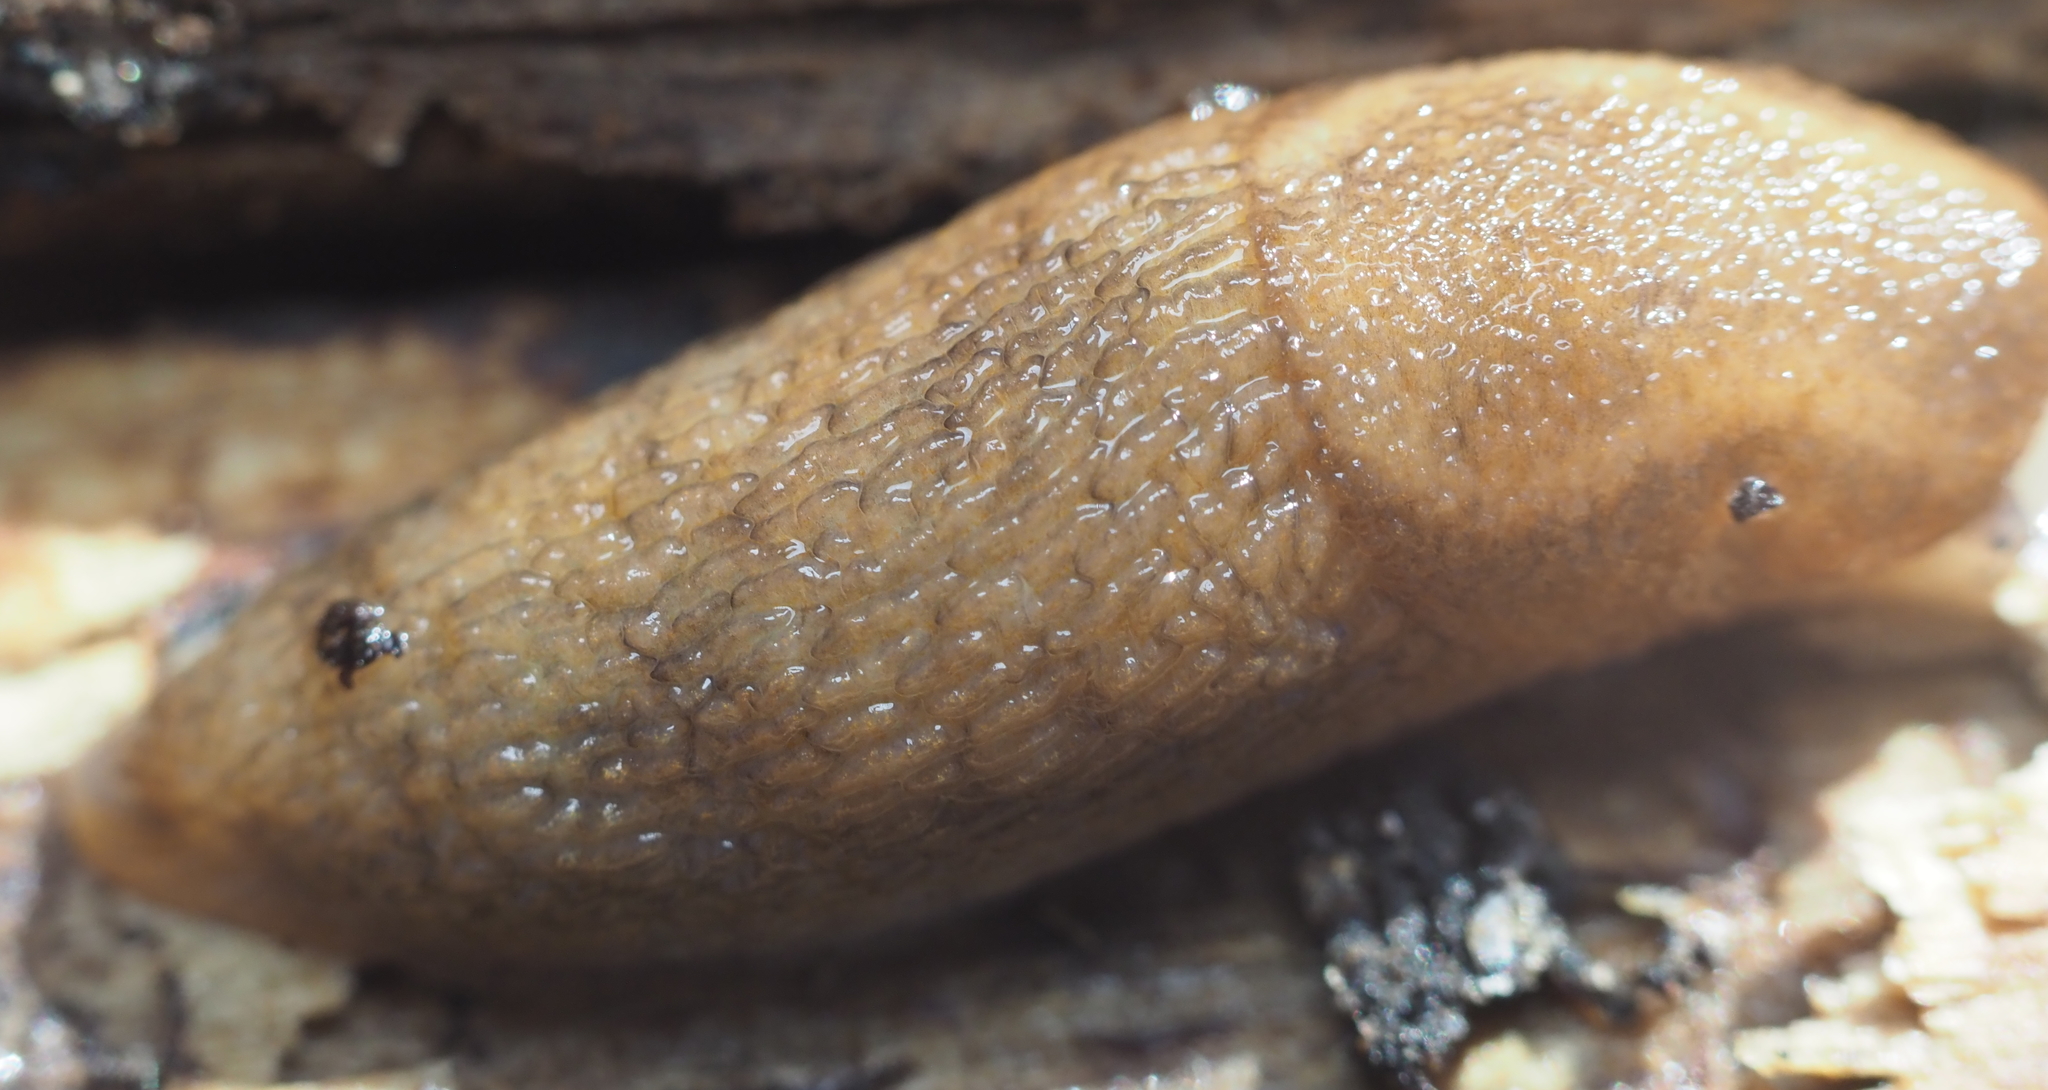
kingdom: Animalia
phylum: Mollusca
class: Gastropoda
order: Stylommatophora
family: Arionidae
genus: Arion
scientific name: Arion subfuscus
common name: Dusky arion
